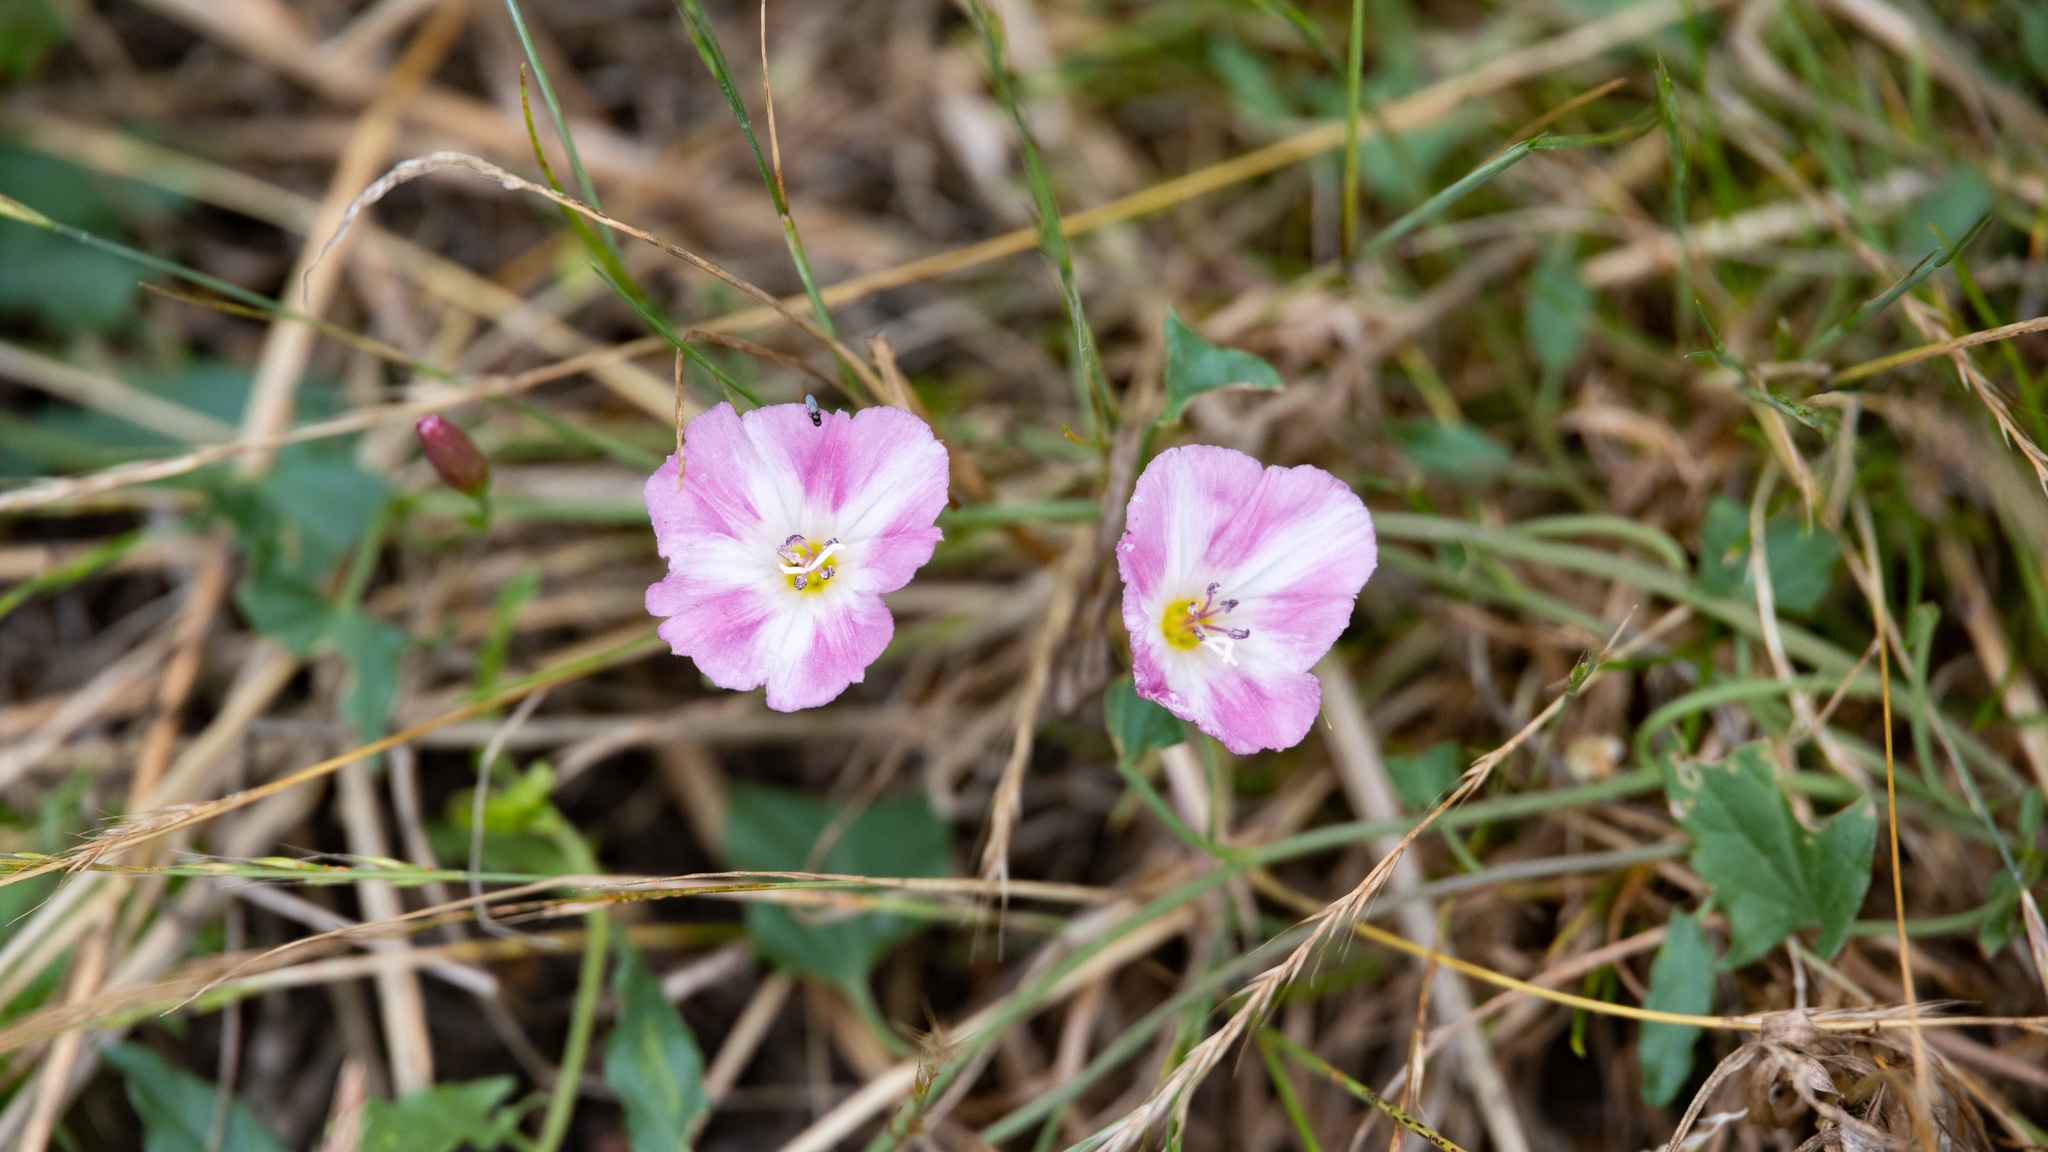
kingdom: Plantae
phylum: Tracheophyta
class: Magnoliopsida
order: Solanales
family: Convolvulaceae
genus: Convolvulus
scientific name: Convolvulus arvensis
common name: Field bindweed
